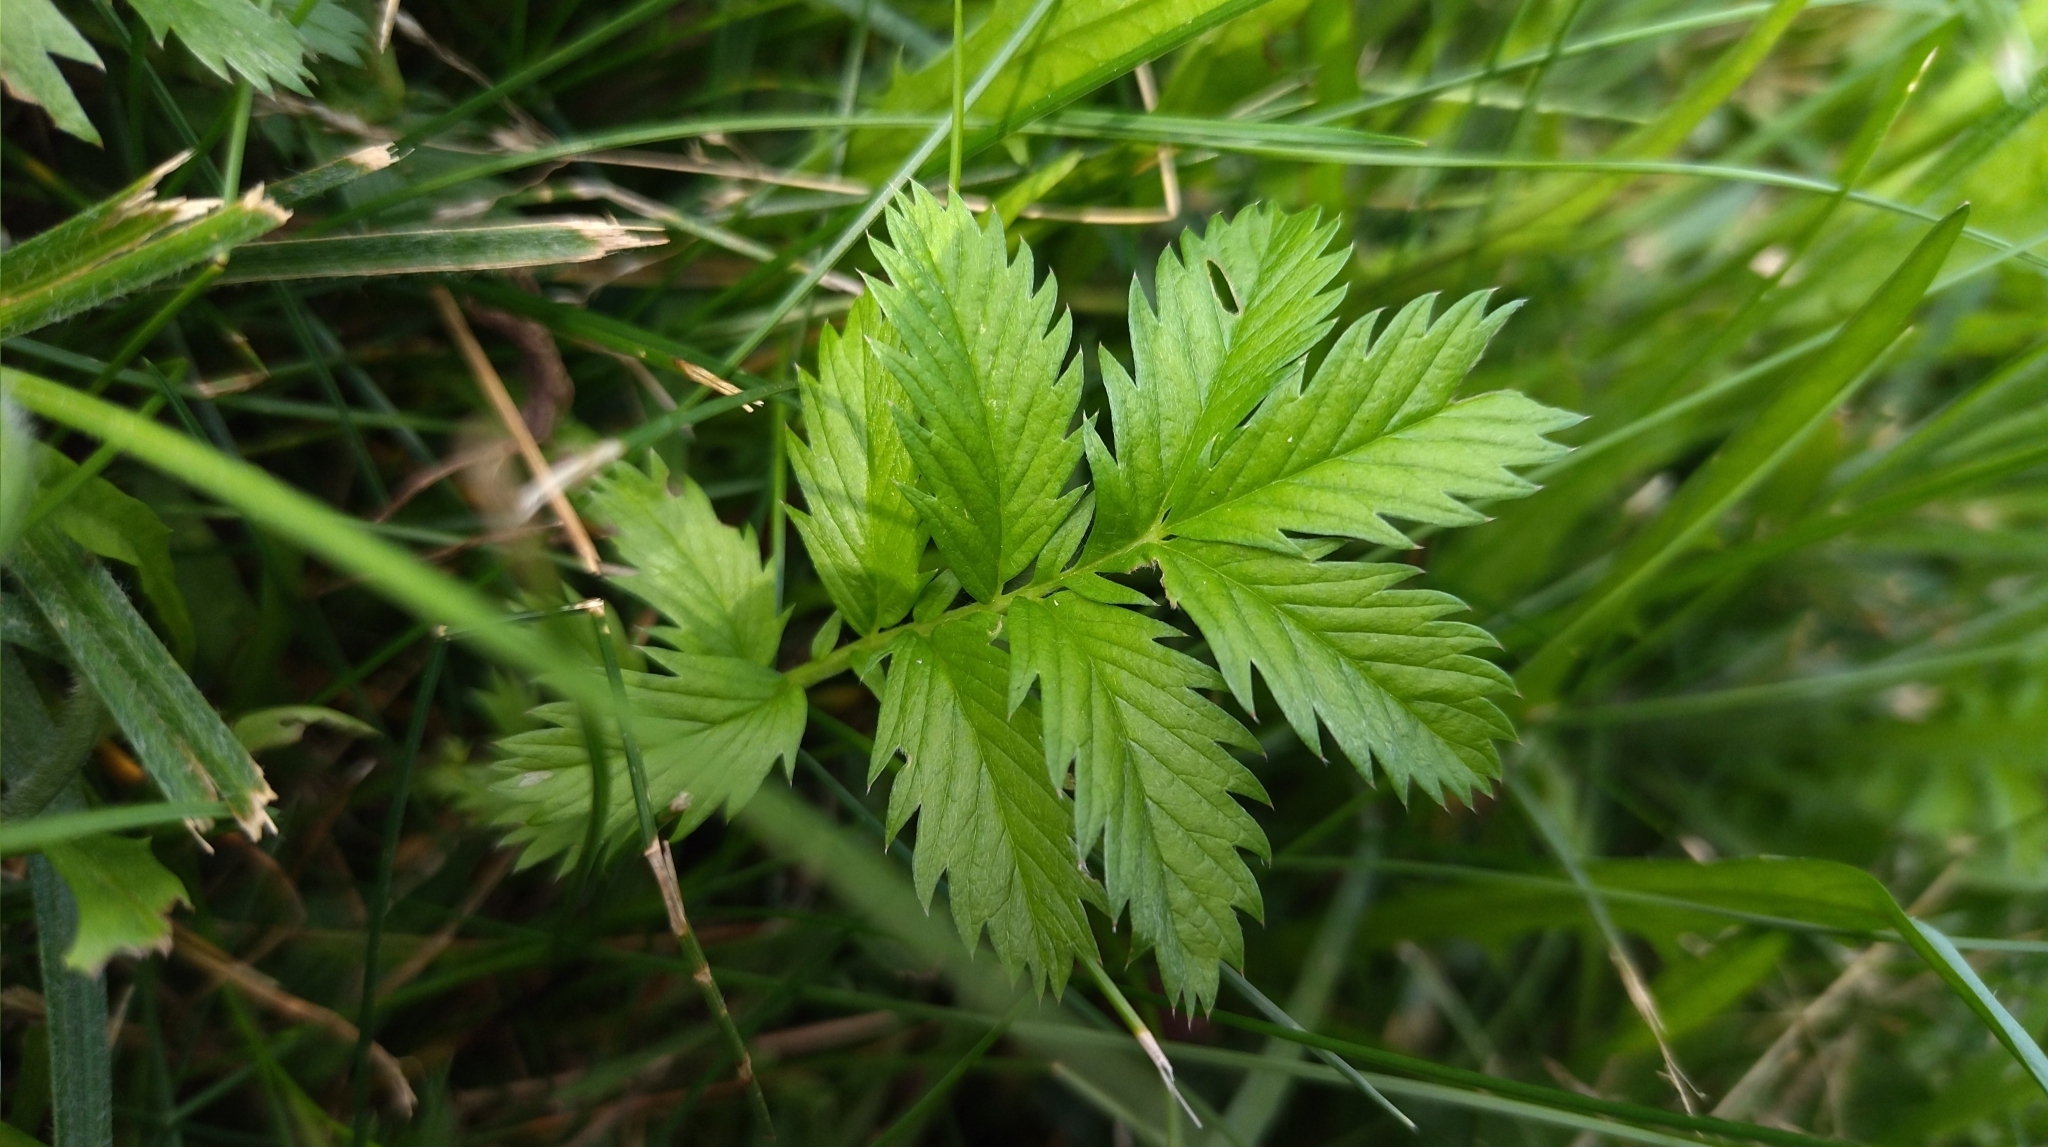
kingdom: Plantae
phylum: Tracheophyta
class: Magnoliopsida
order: Rosales
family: Rosaceae
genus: Argentina
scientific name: Argentina anserina
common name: Common silverweed
